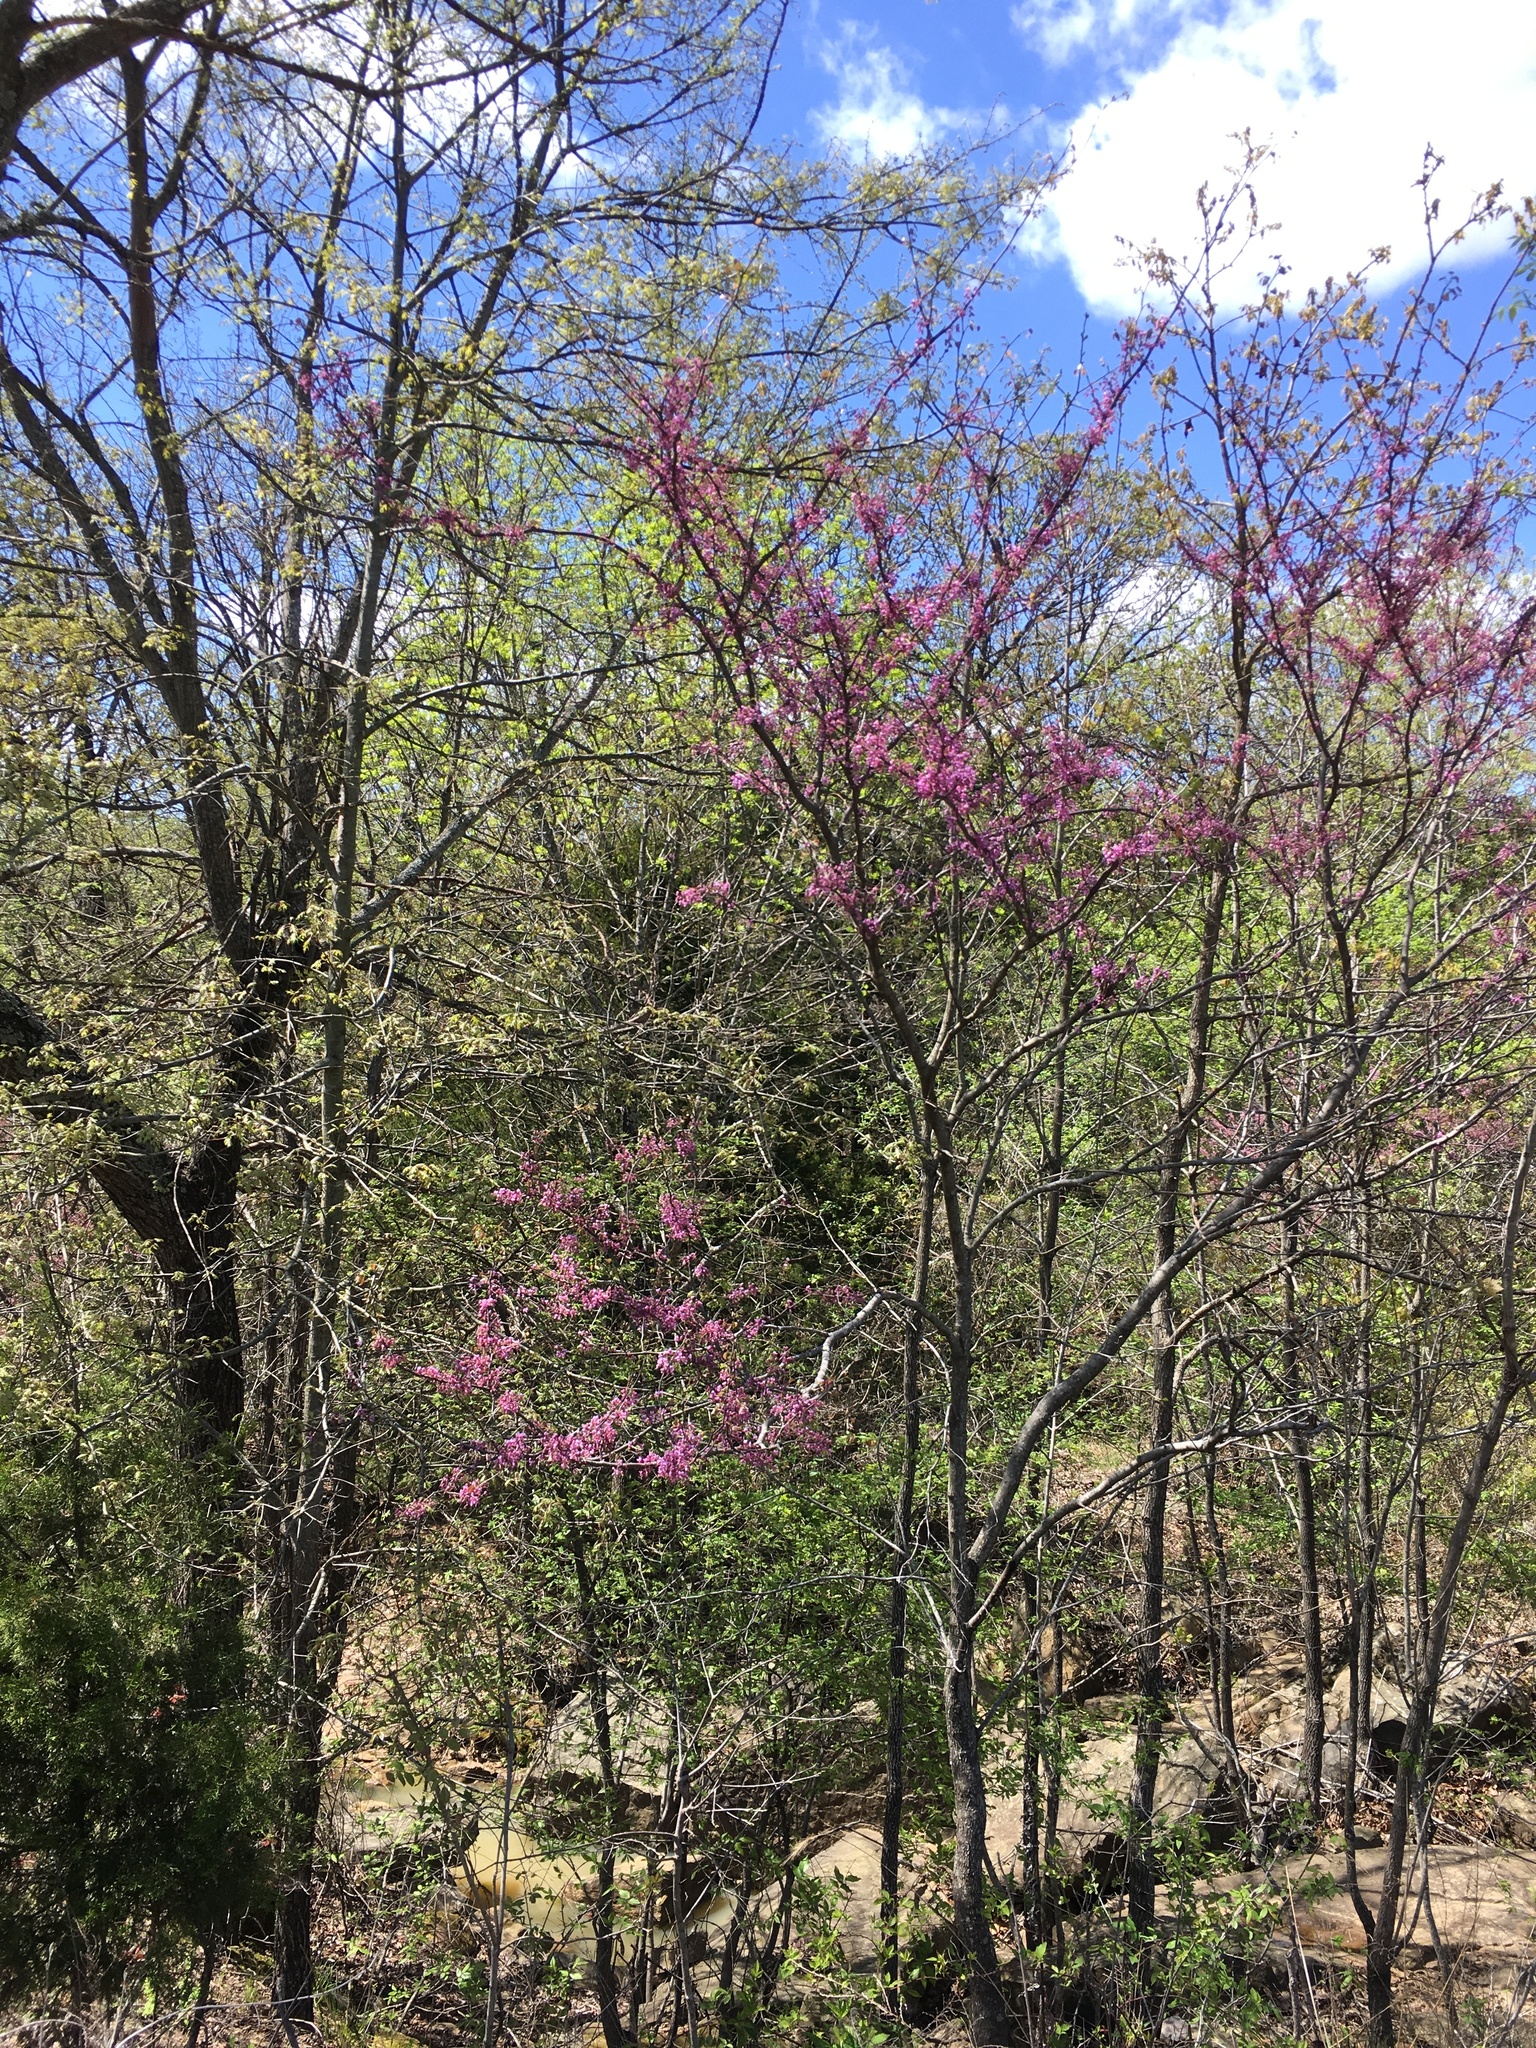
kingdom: Plantae
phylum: Tracheophyta
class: Magnoliopsida
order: Fabales
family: Fabaceae
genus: Cercis
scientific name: Cercis canadensis
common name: Eastern redbud
